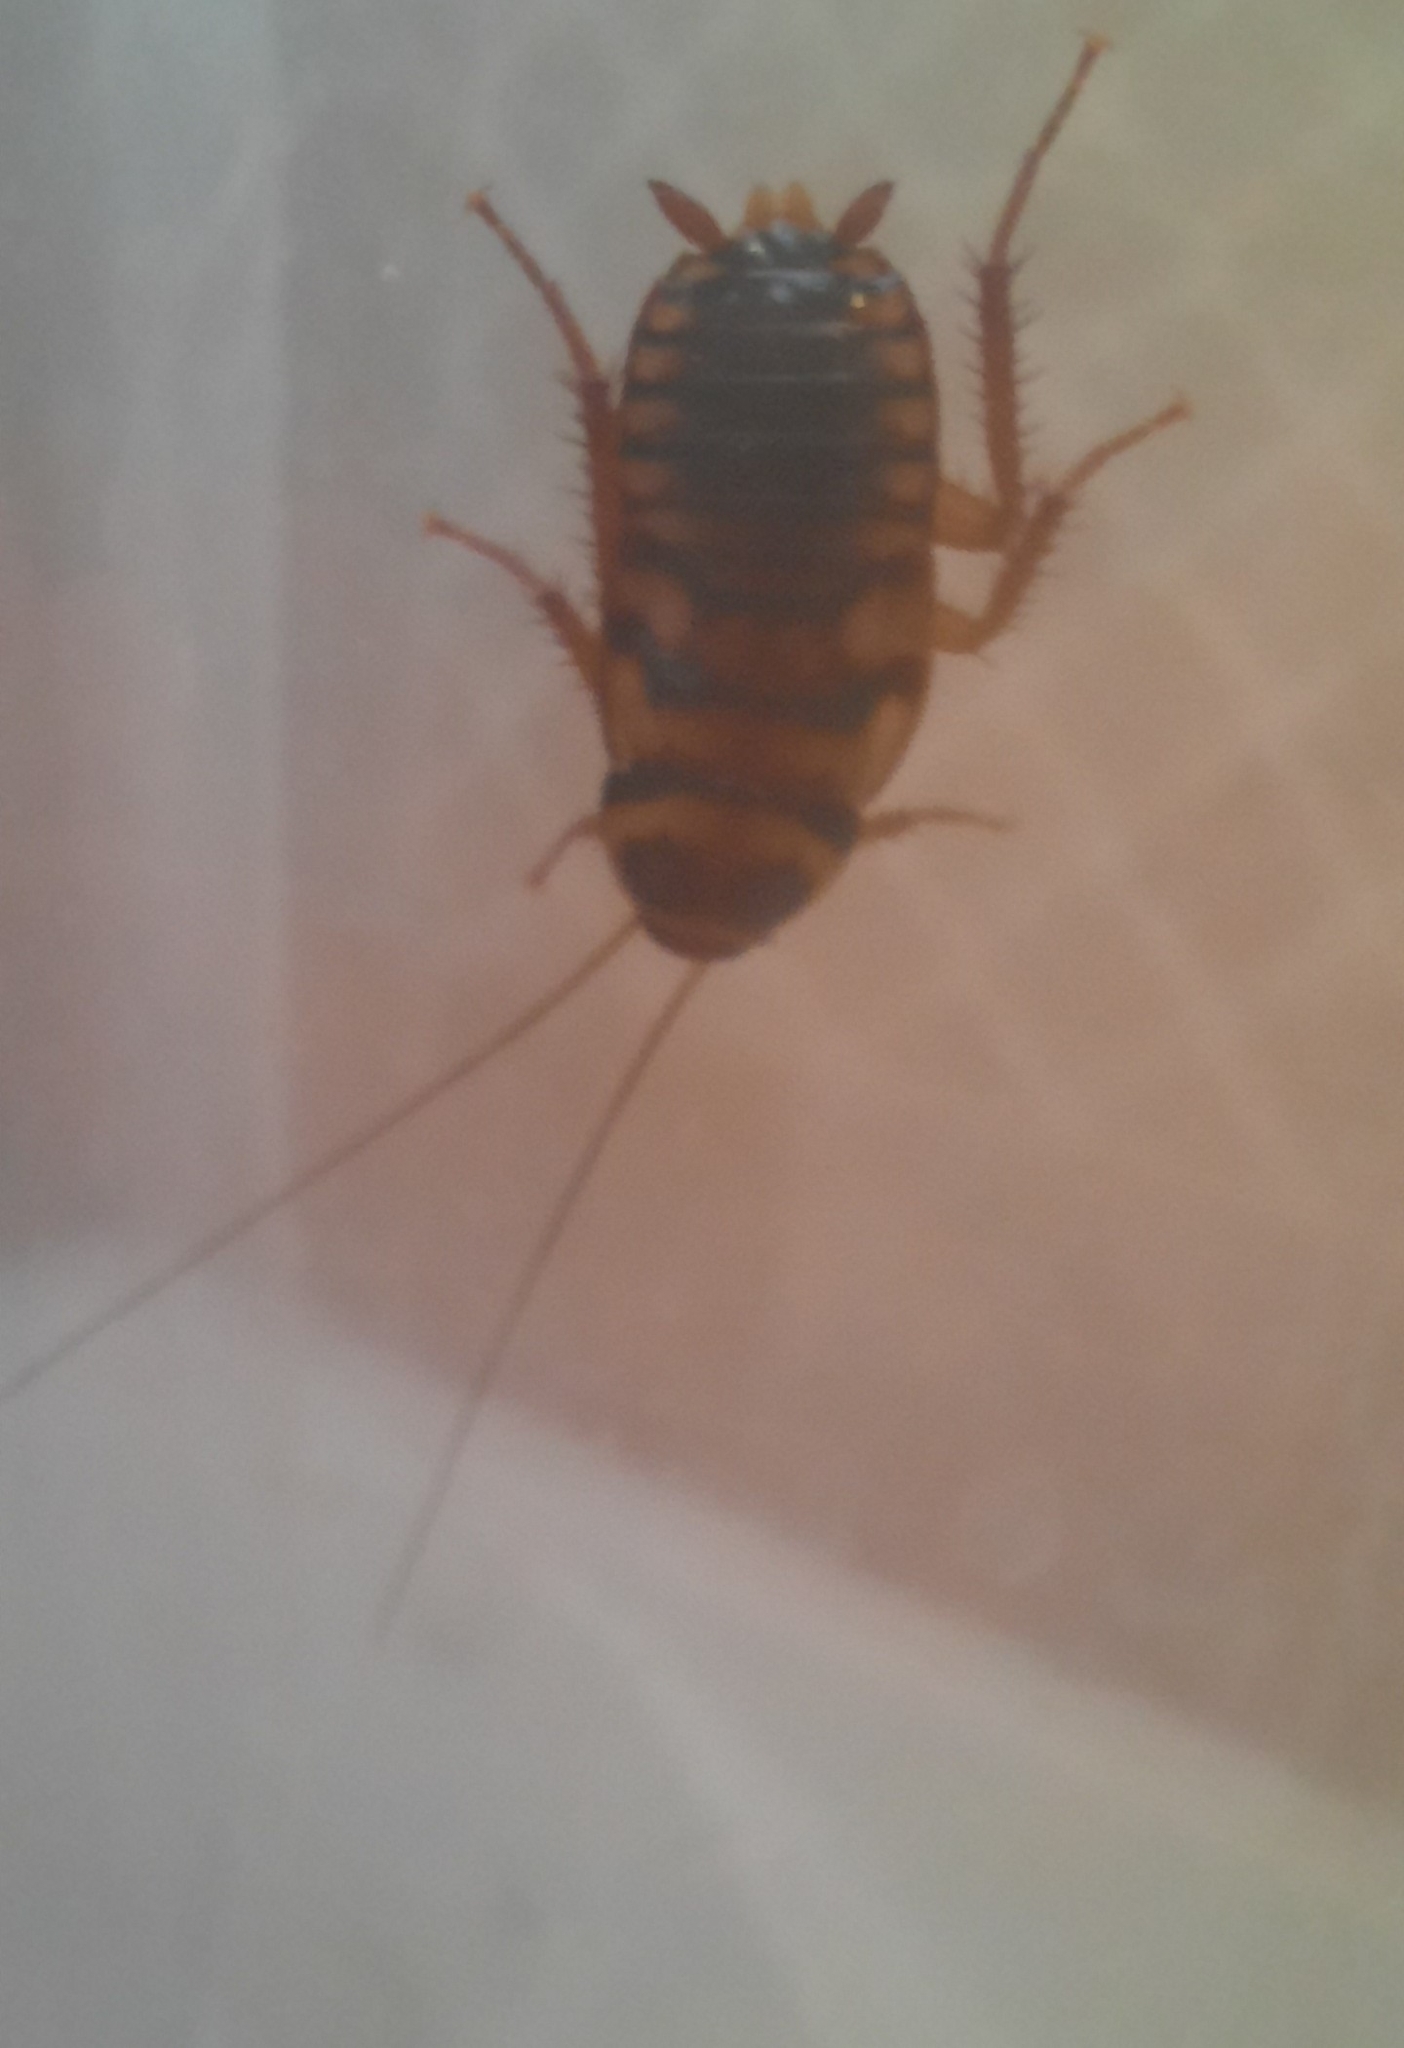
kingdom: Animalia
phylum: Arthropoda
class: Insecta
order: Blattodea
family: Blattidae
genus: Periplaneta
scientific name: Periplaneta australasiae
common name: Australian cockroach
